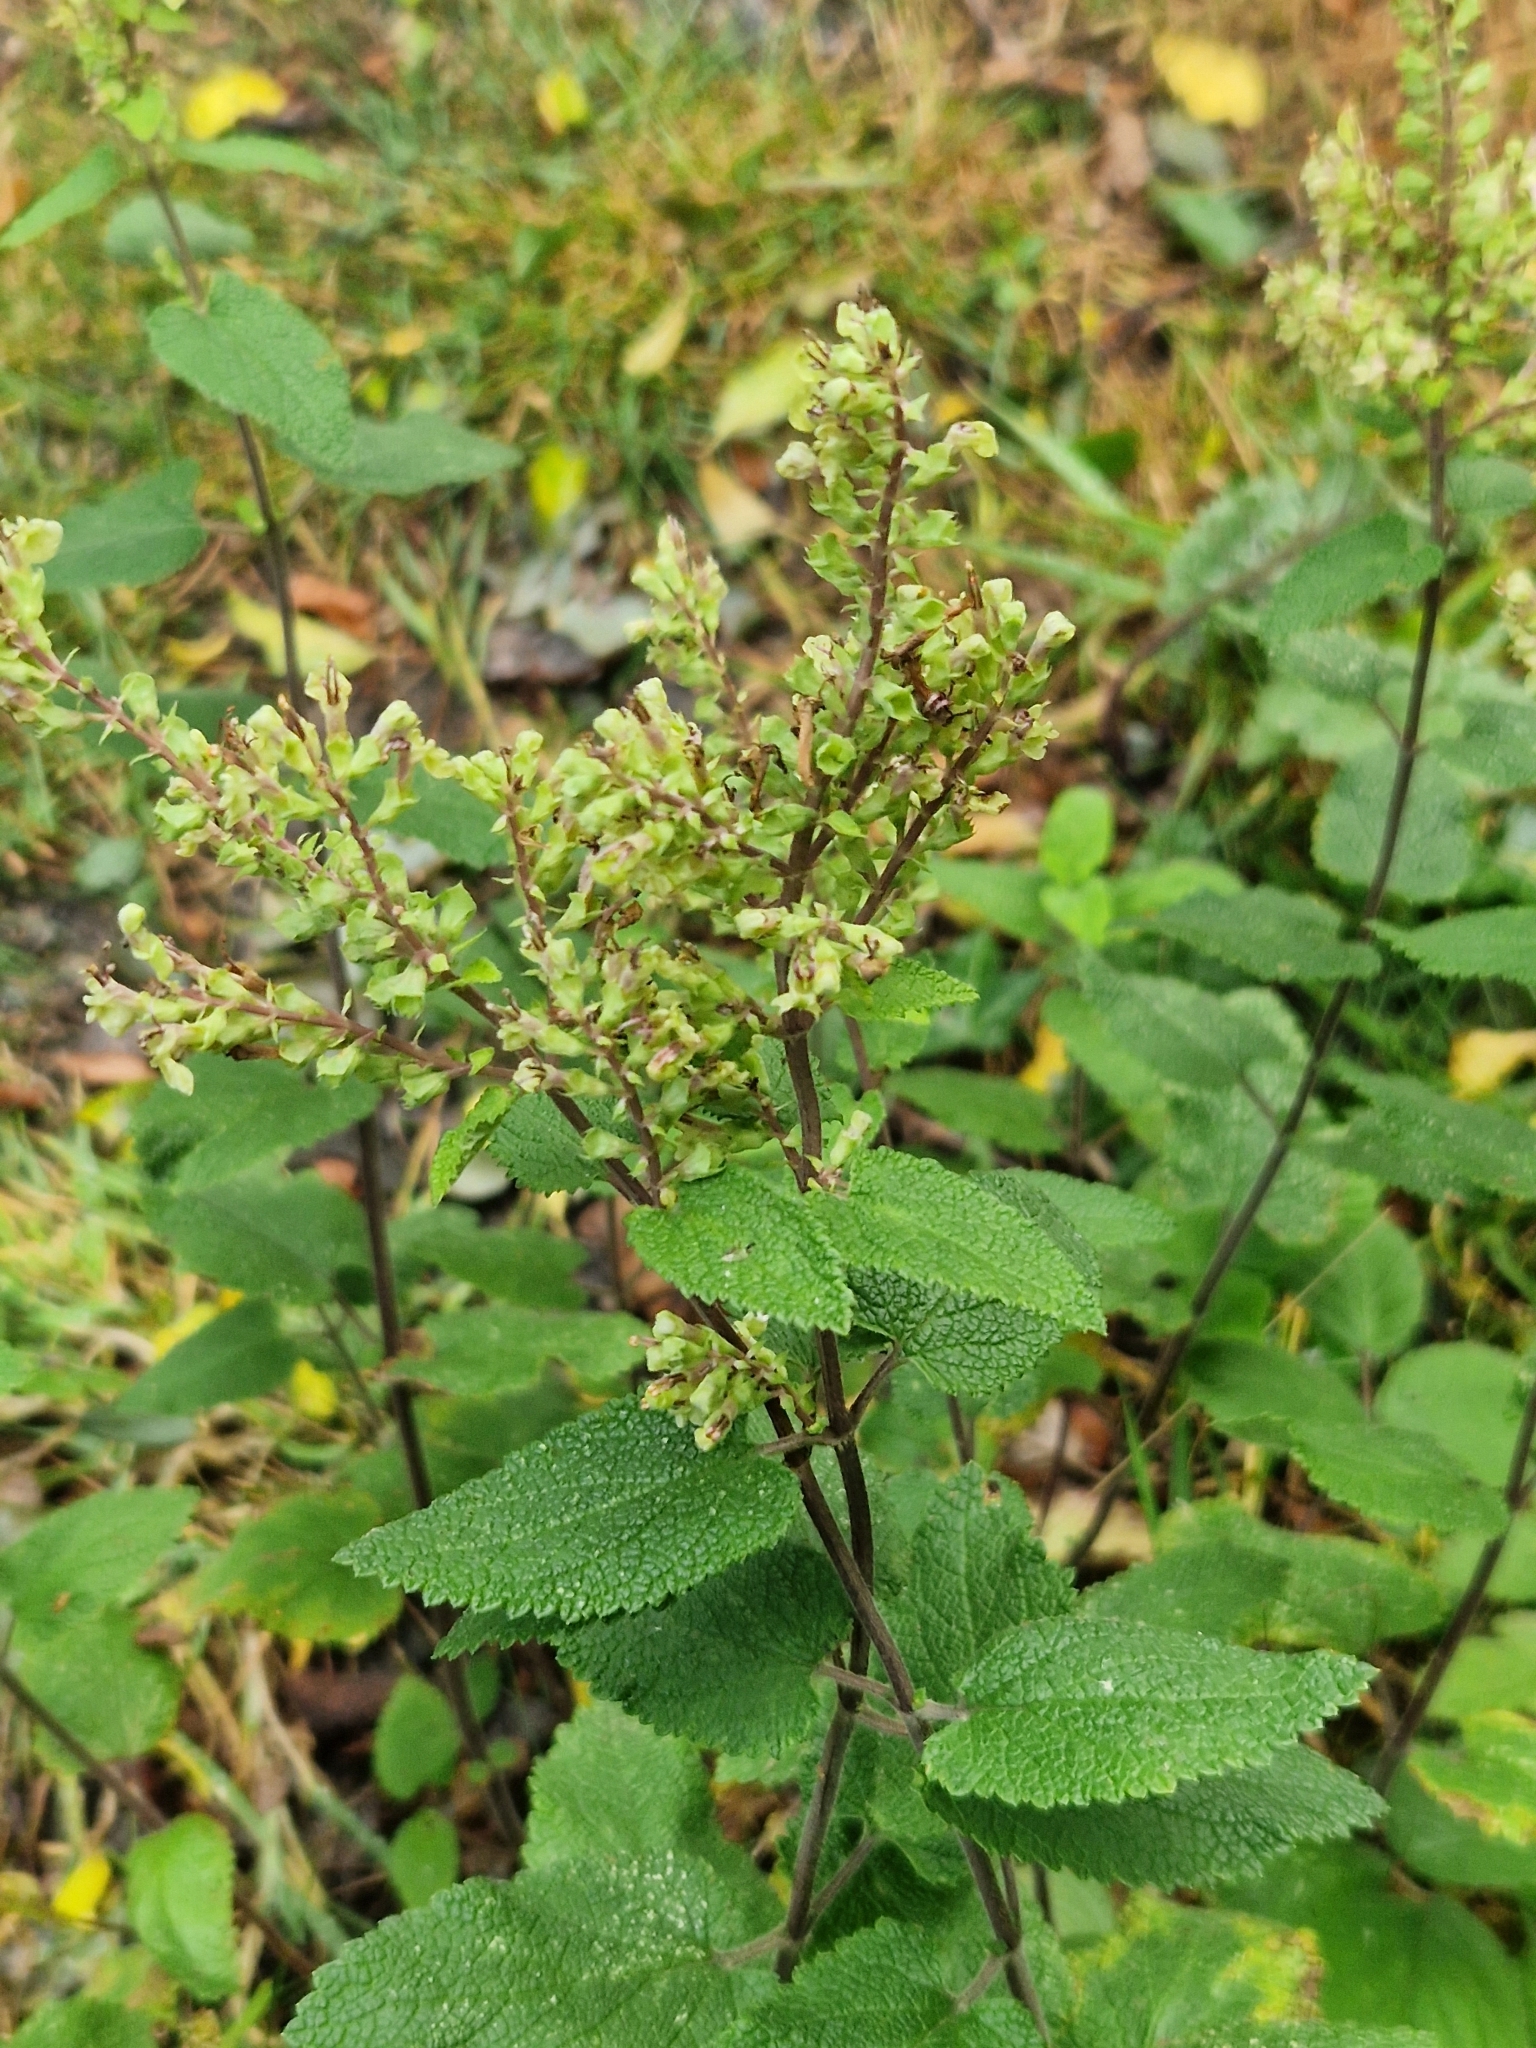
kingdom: Plantae
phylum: Tracheophyta
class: Magnoliopsida
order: Lamiales
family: Lamiaceae
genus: Teucrium
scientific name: Teucrium scorodonia
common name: Woodland germander
